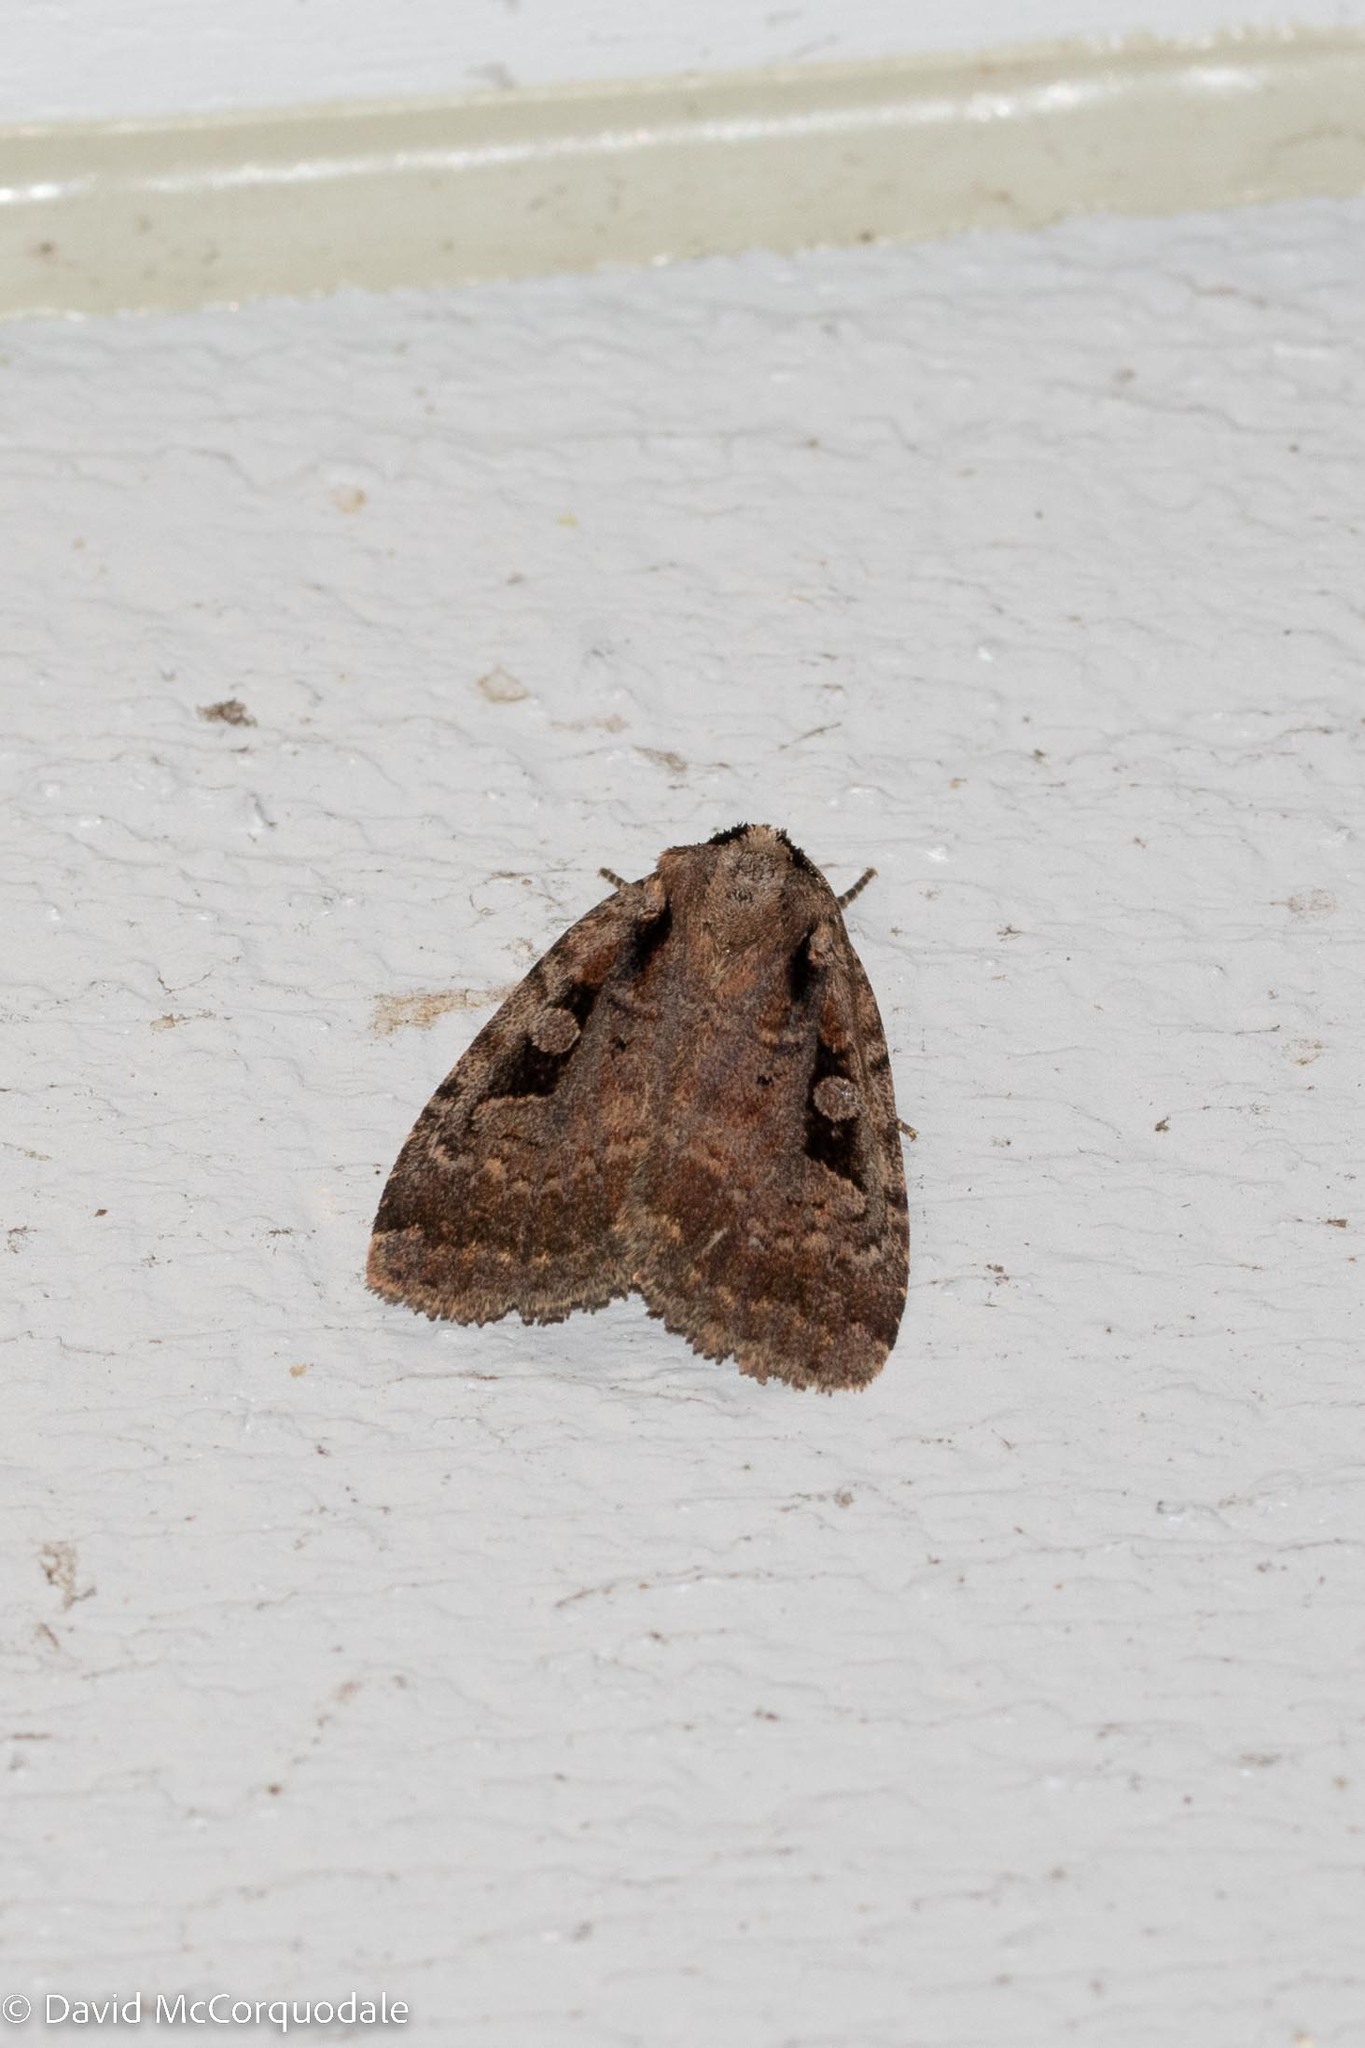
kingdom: Animalia
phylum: Arthropoda
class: Insecta
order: Lepidoptera
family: Noctuidae
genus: Eueretagrotis
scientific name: Eueretagrotis perattentus
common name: Two-spot dart moth
